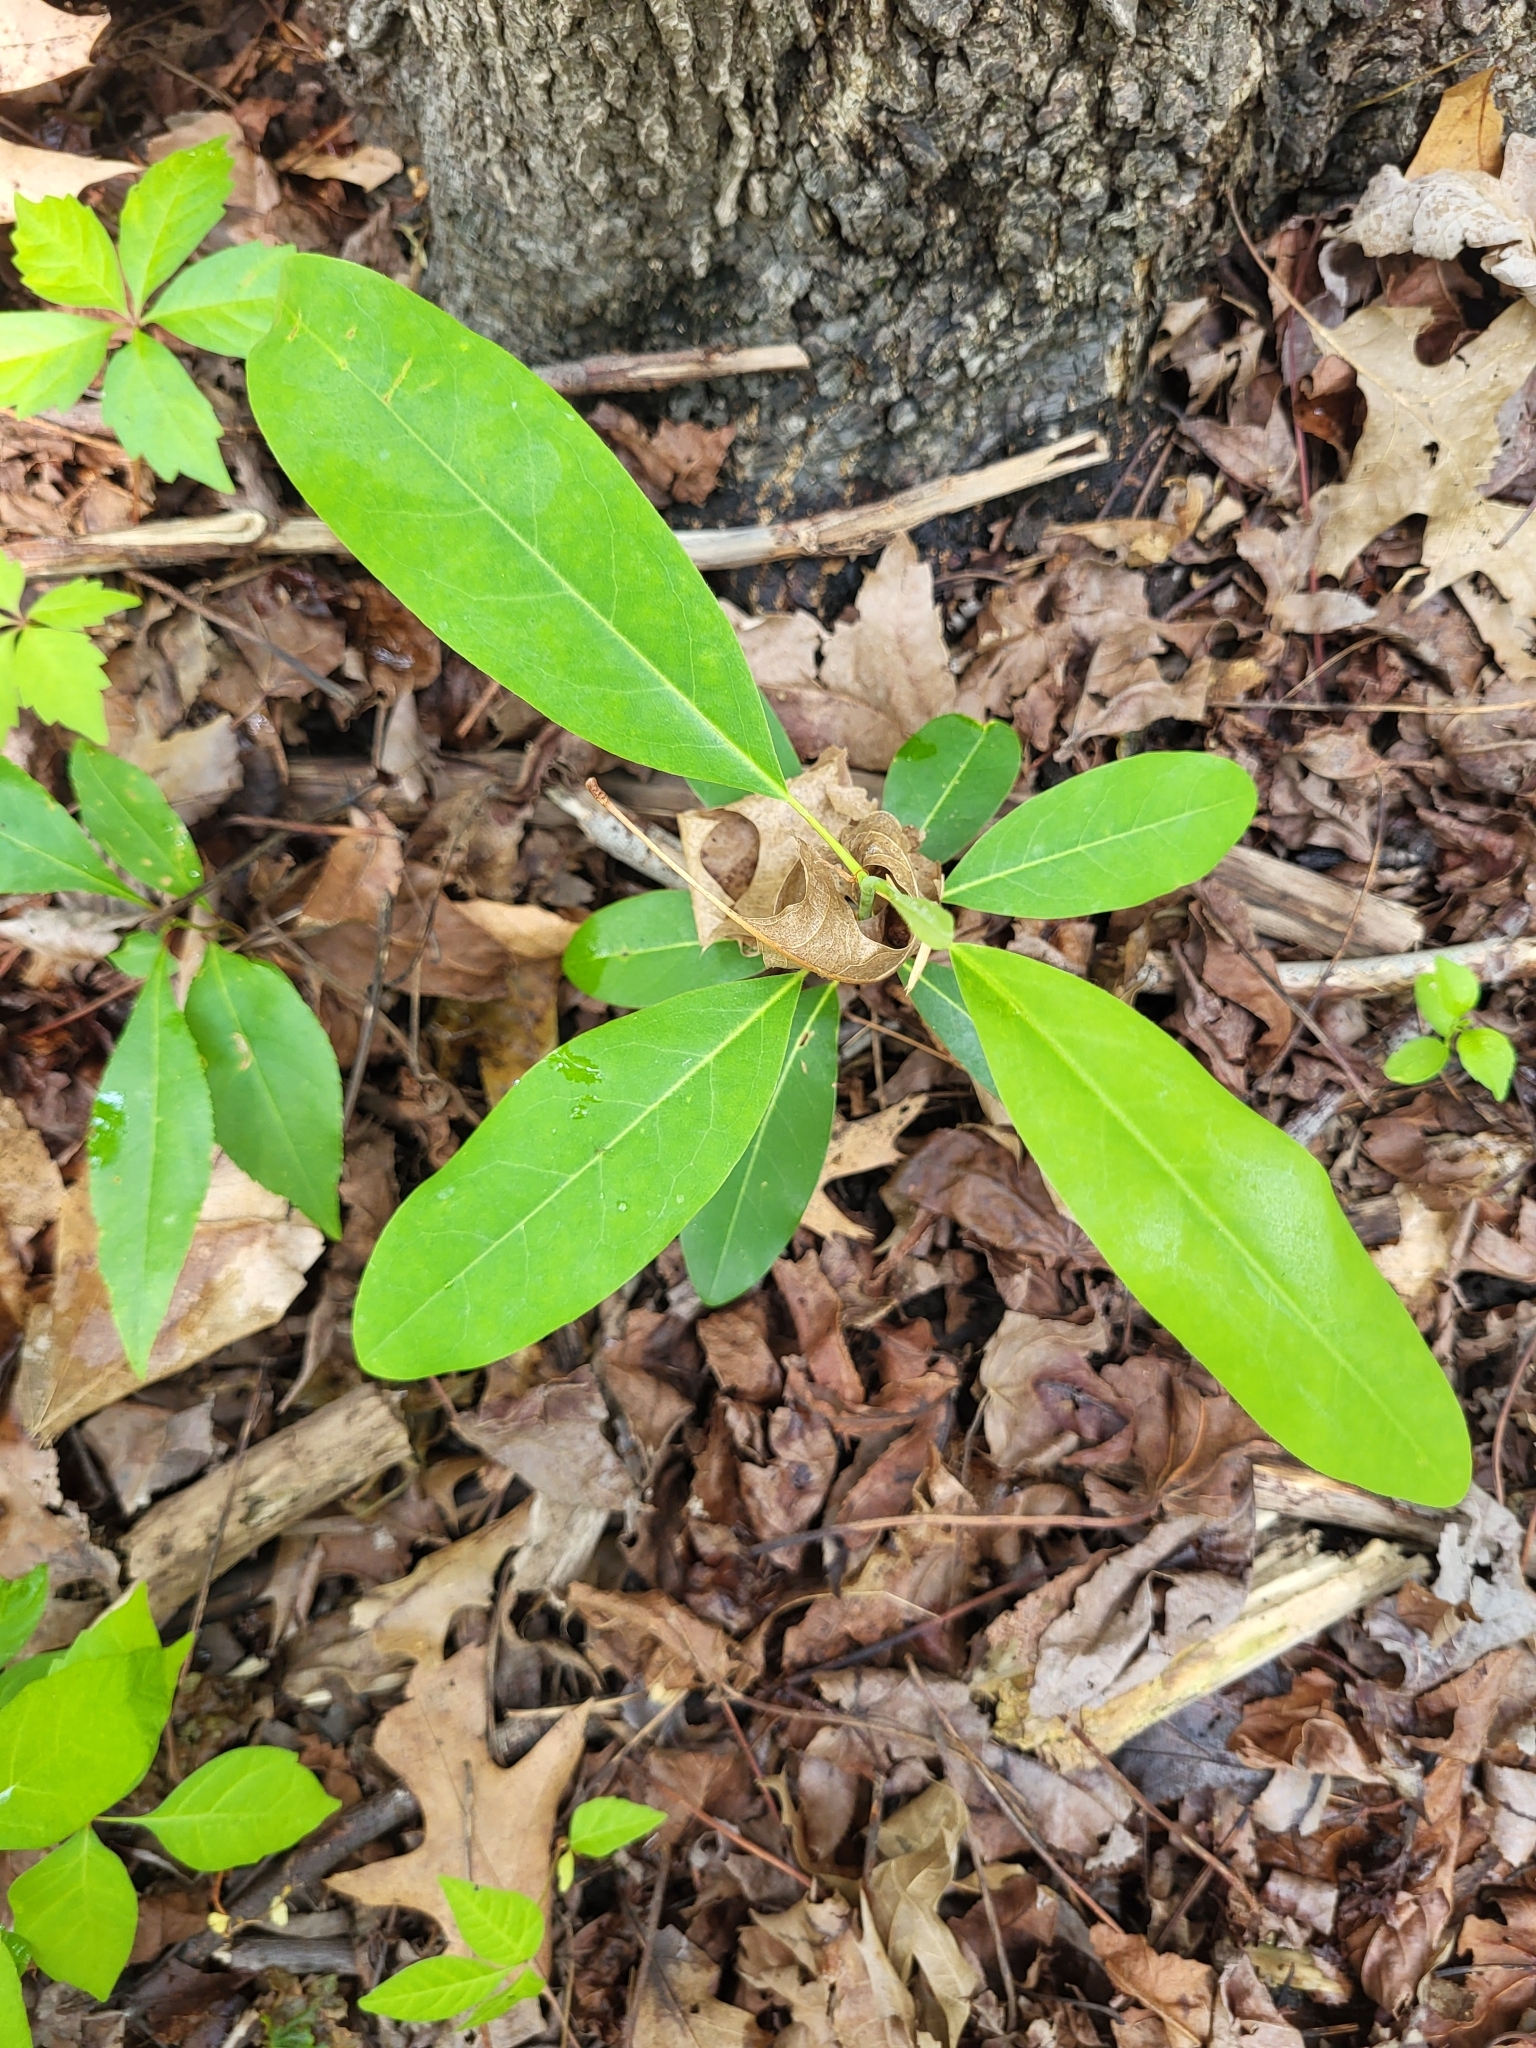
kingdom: Plantae
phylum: Tracheophyta
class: Magnoliopsida
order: Magnoliales
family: Magnoliaceae
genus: Magnolia
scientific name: Magnolia virginiana
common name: Swamp bay
